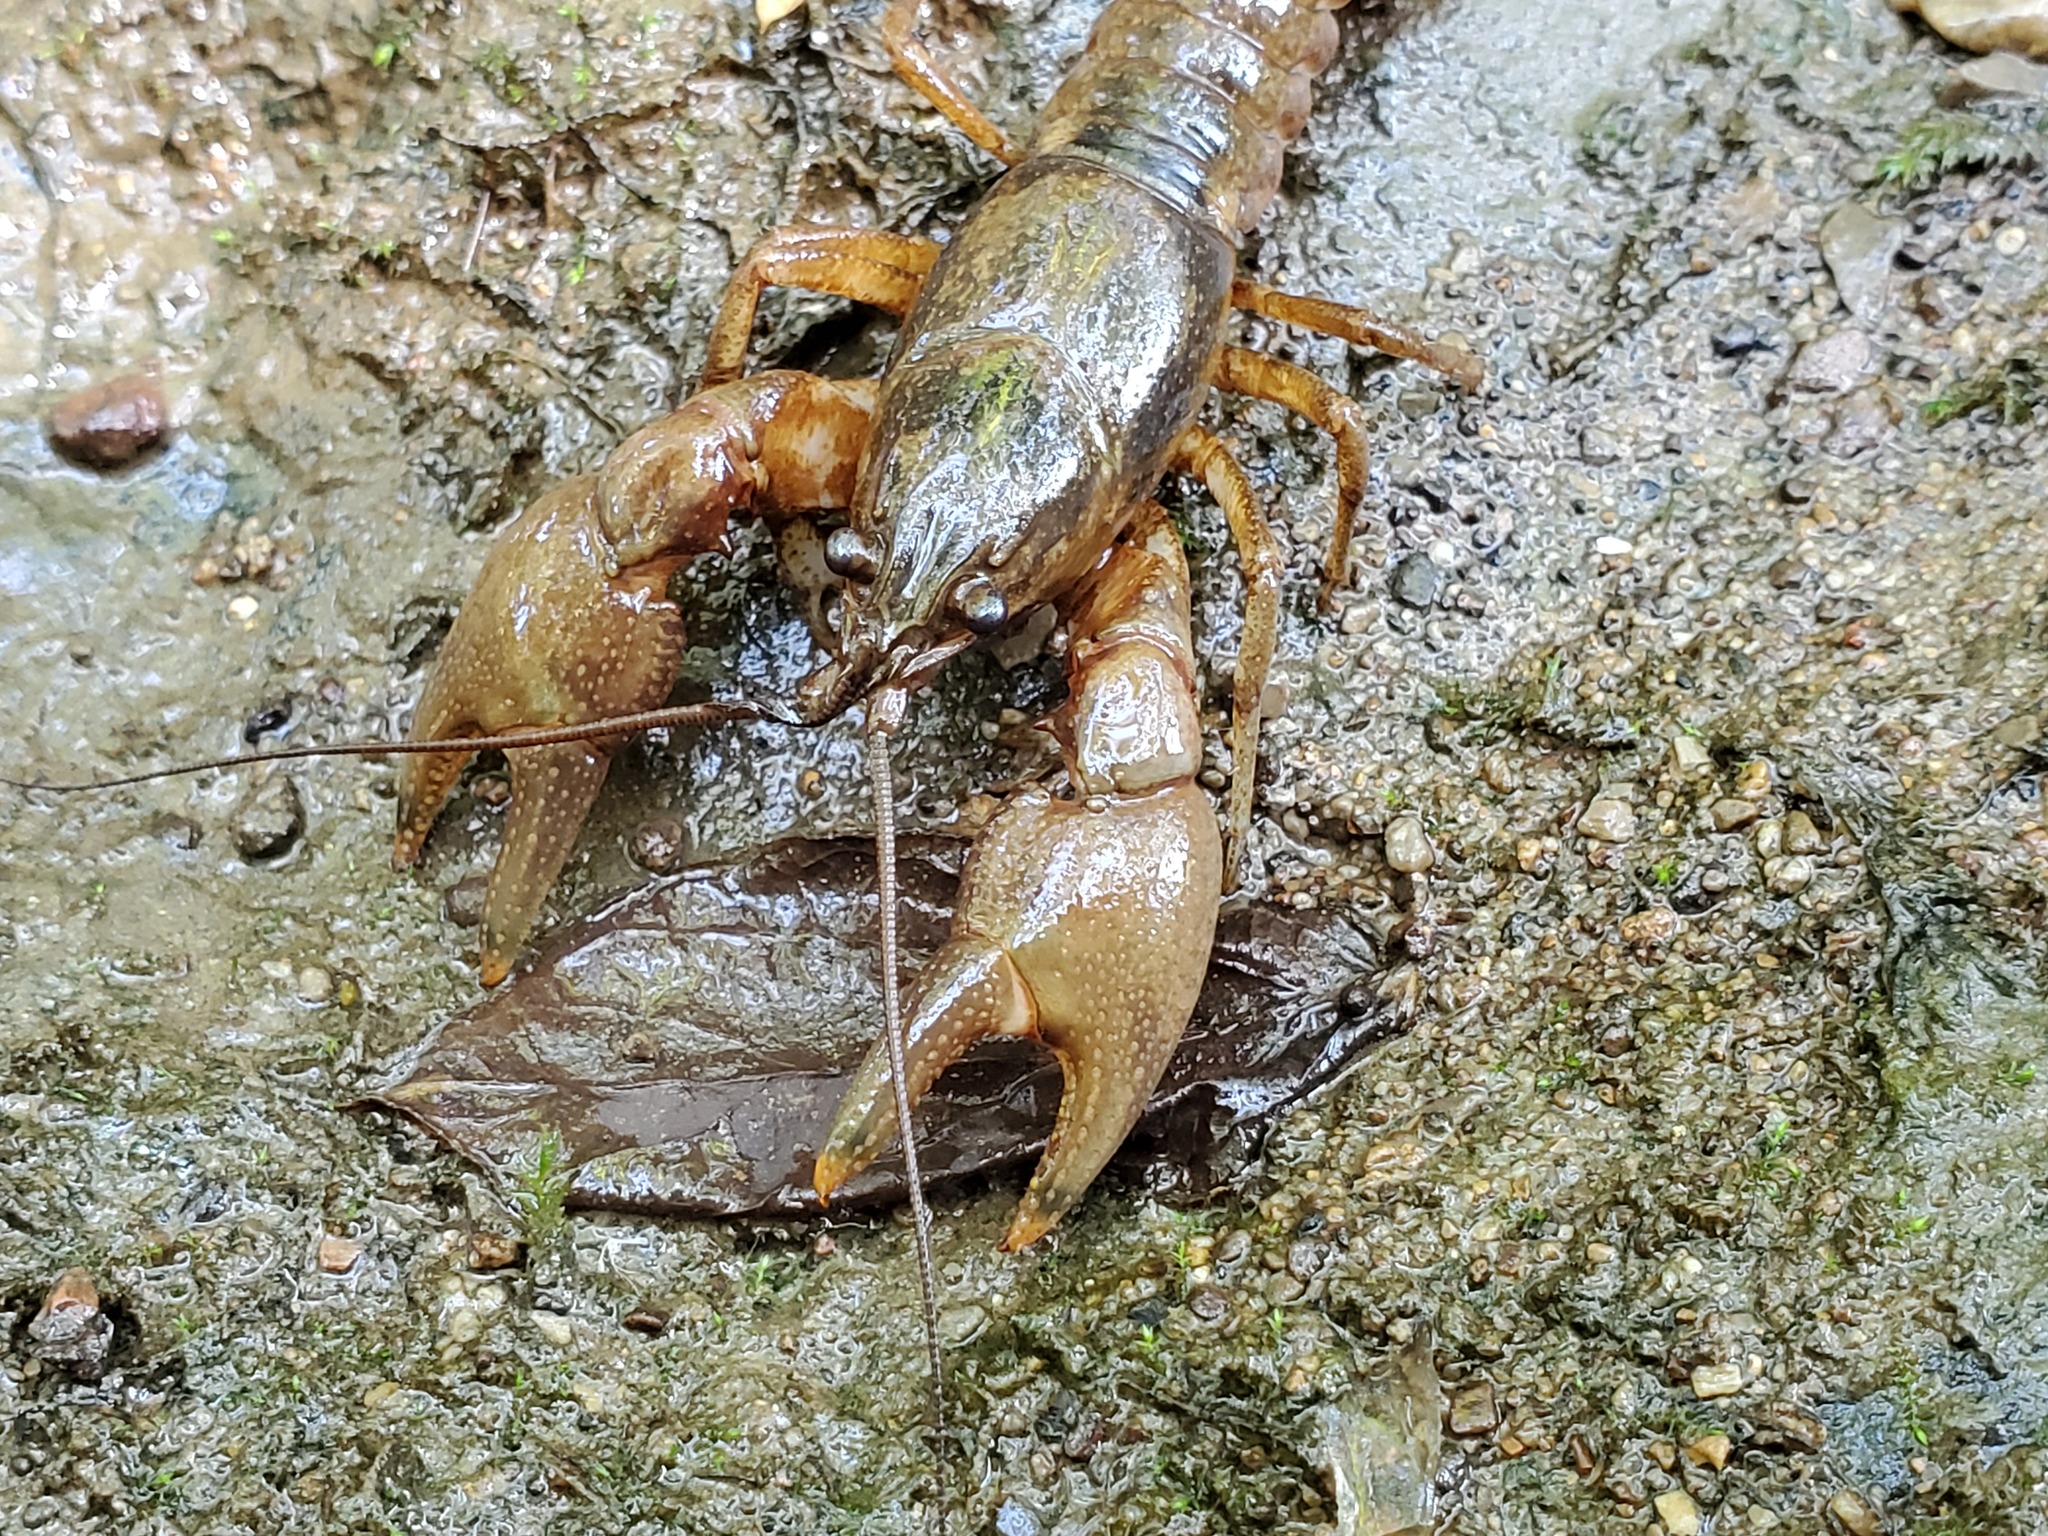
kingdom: Animalia
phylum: Arthropoda
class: Malacostraca
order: Decapoda
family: Cambaridae
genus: Faxonius
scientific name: Faxonius shoupi
